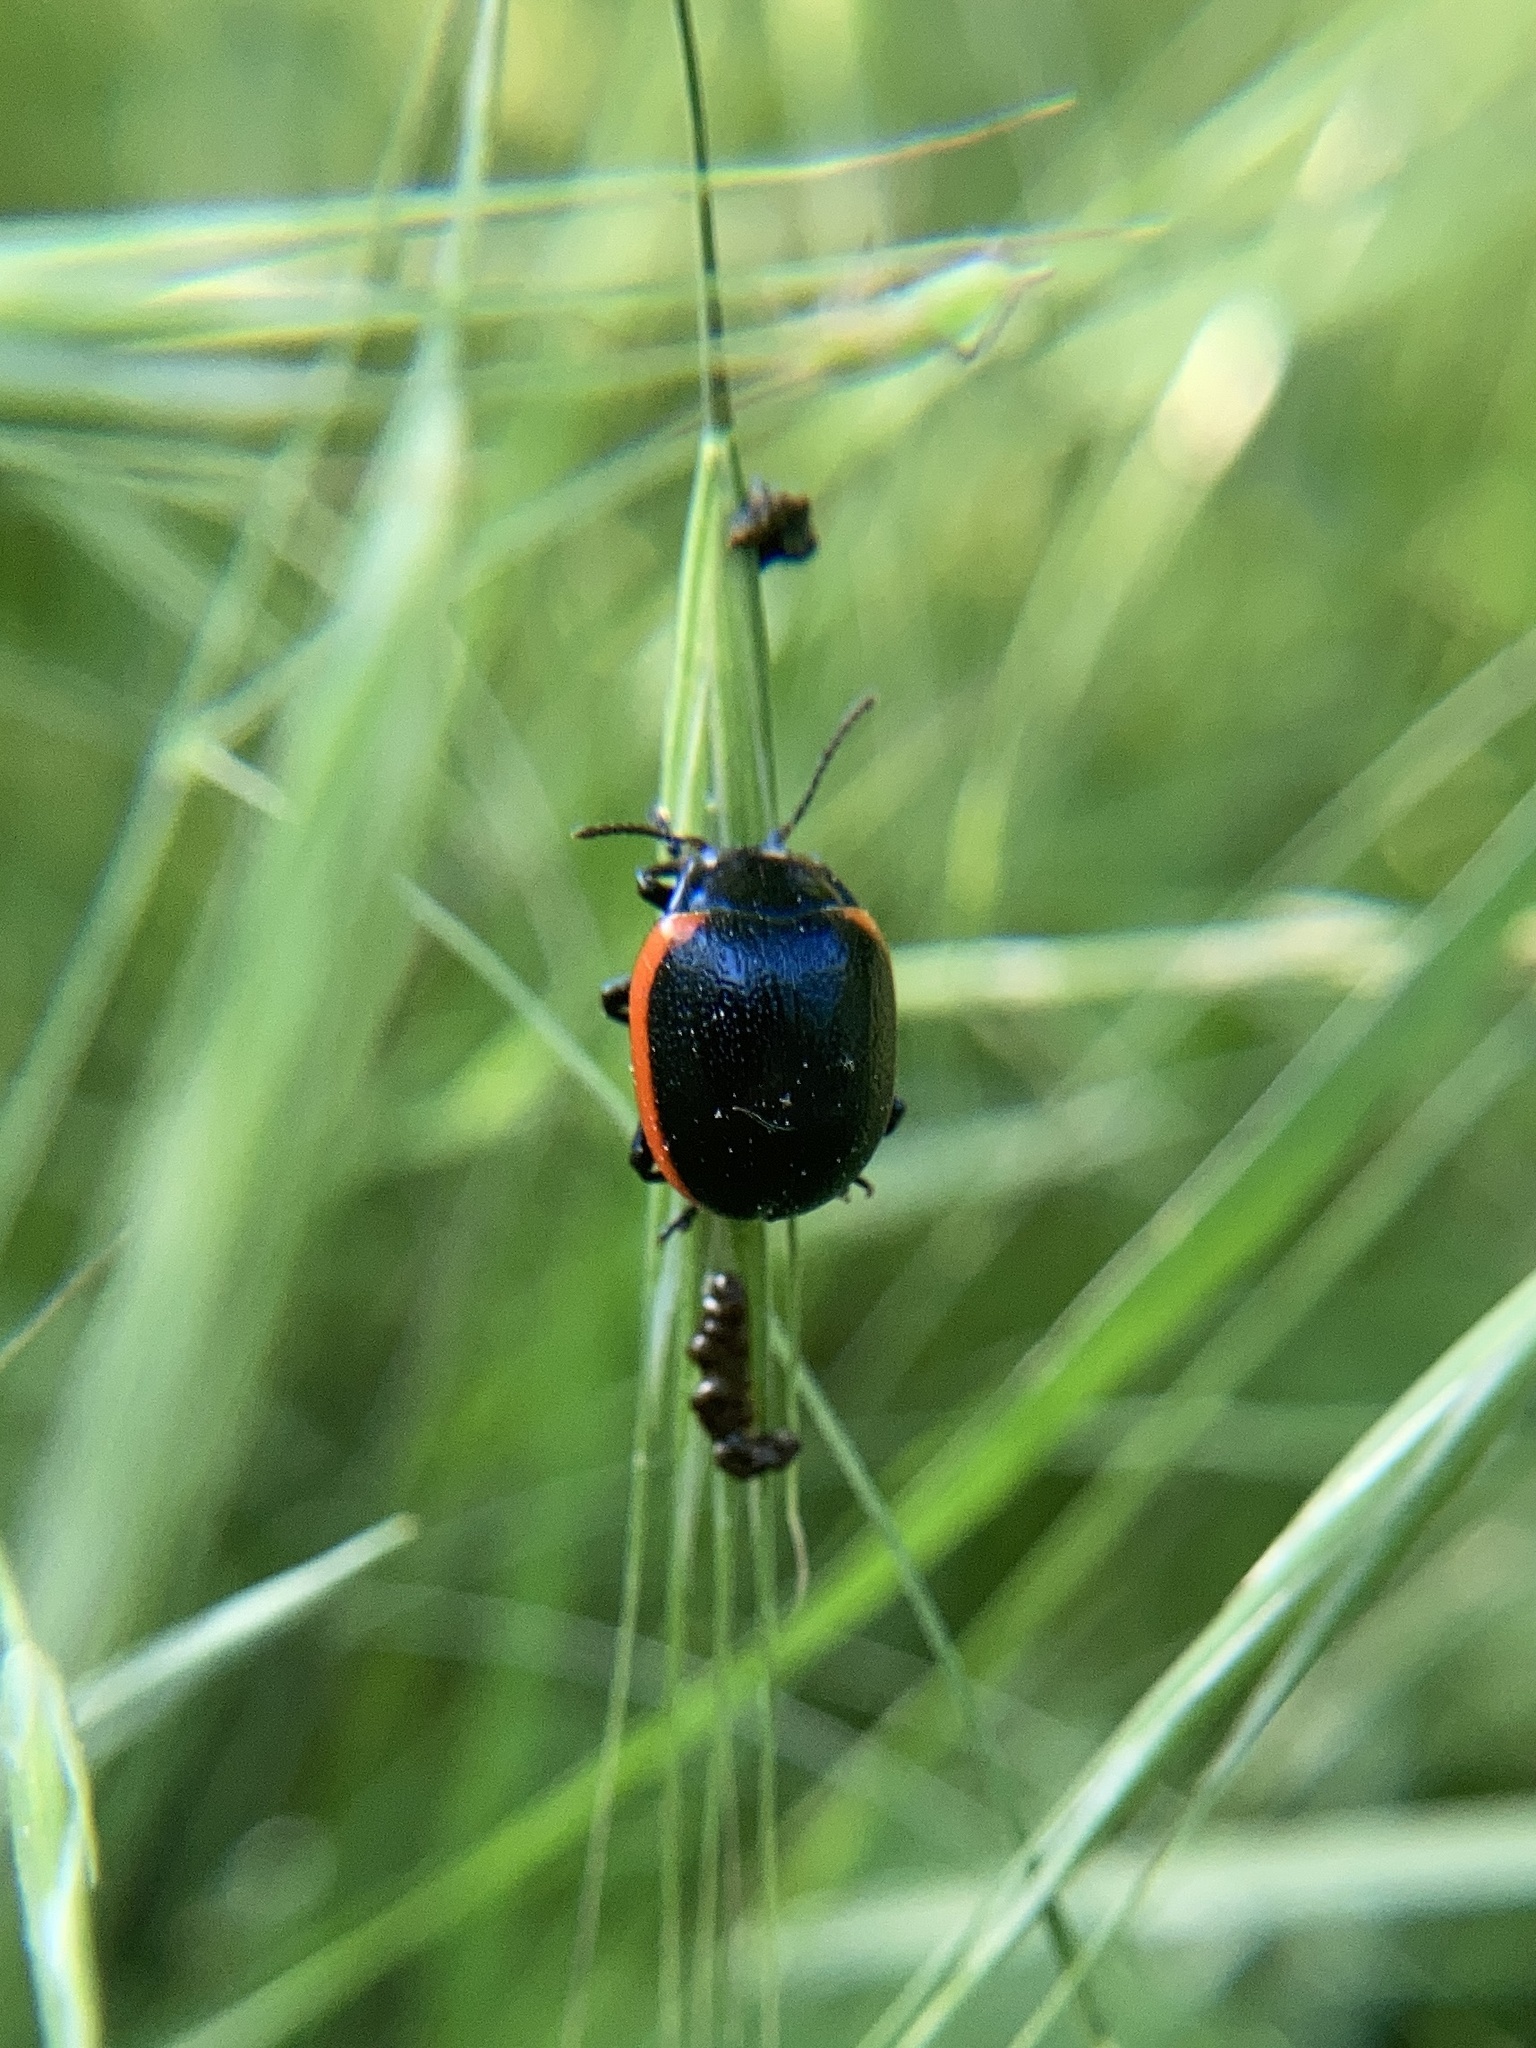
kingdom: Animalia
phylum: Arthropoda
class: Insecta
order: Coleoptera
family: Chrysomelidae
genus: Chrysolina
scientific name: Chrysolina rossia
